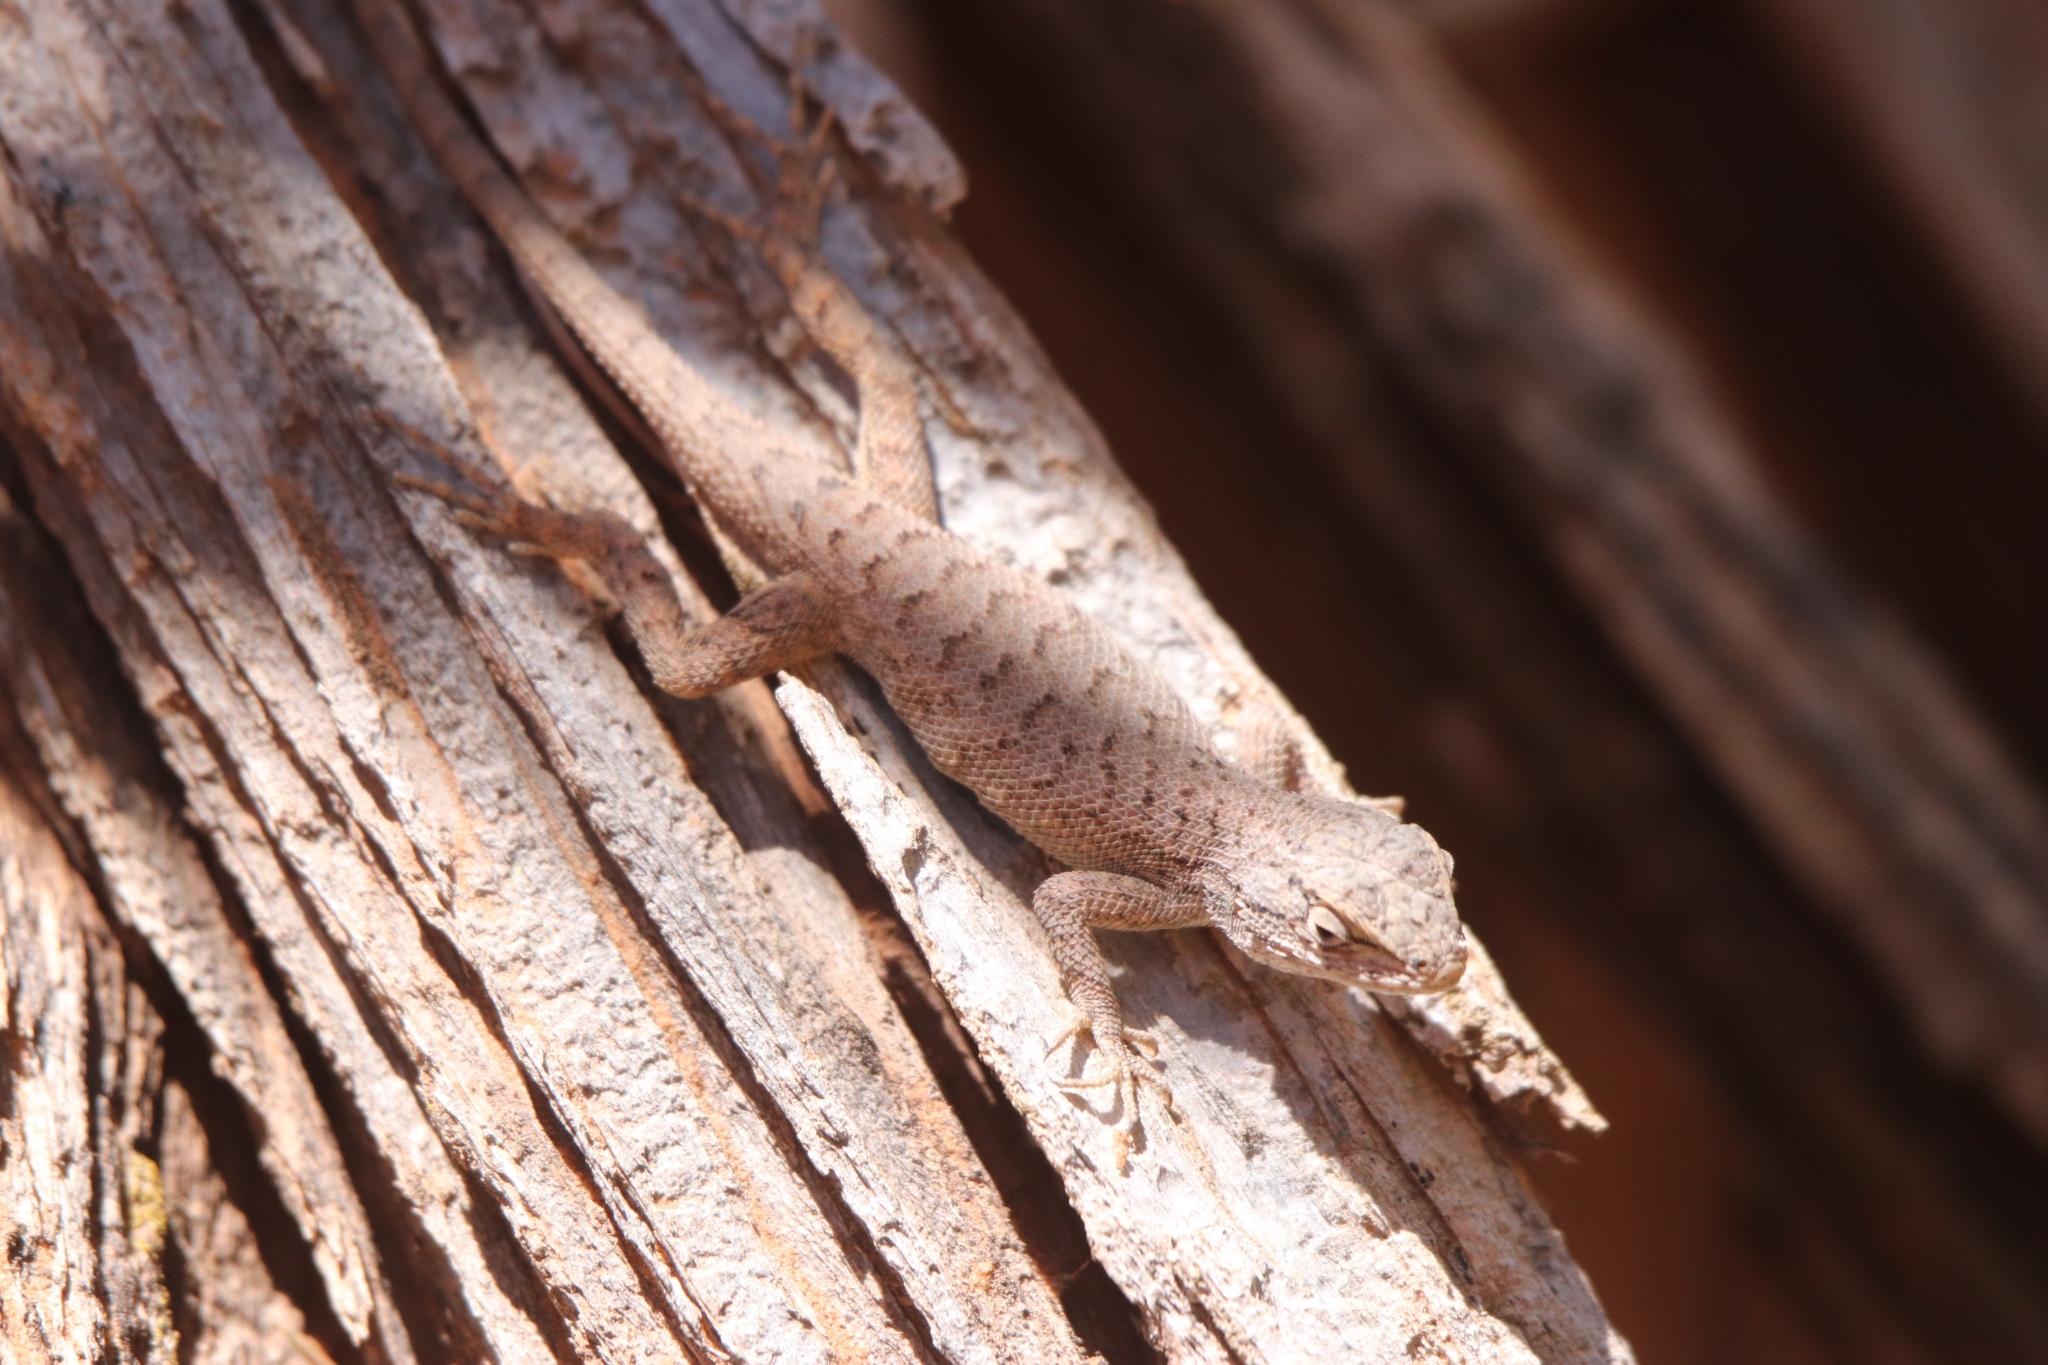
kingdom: Animalia
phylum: Chordata
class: Squamata
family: Phrynosomatidae
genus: Sceloporus
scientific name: Sceloporus tristichus
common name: Plateau fence lizard
